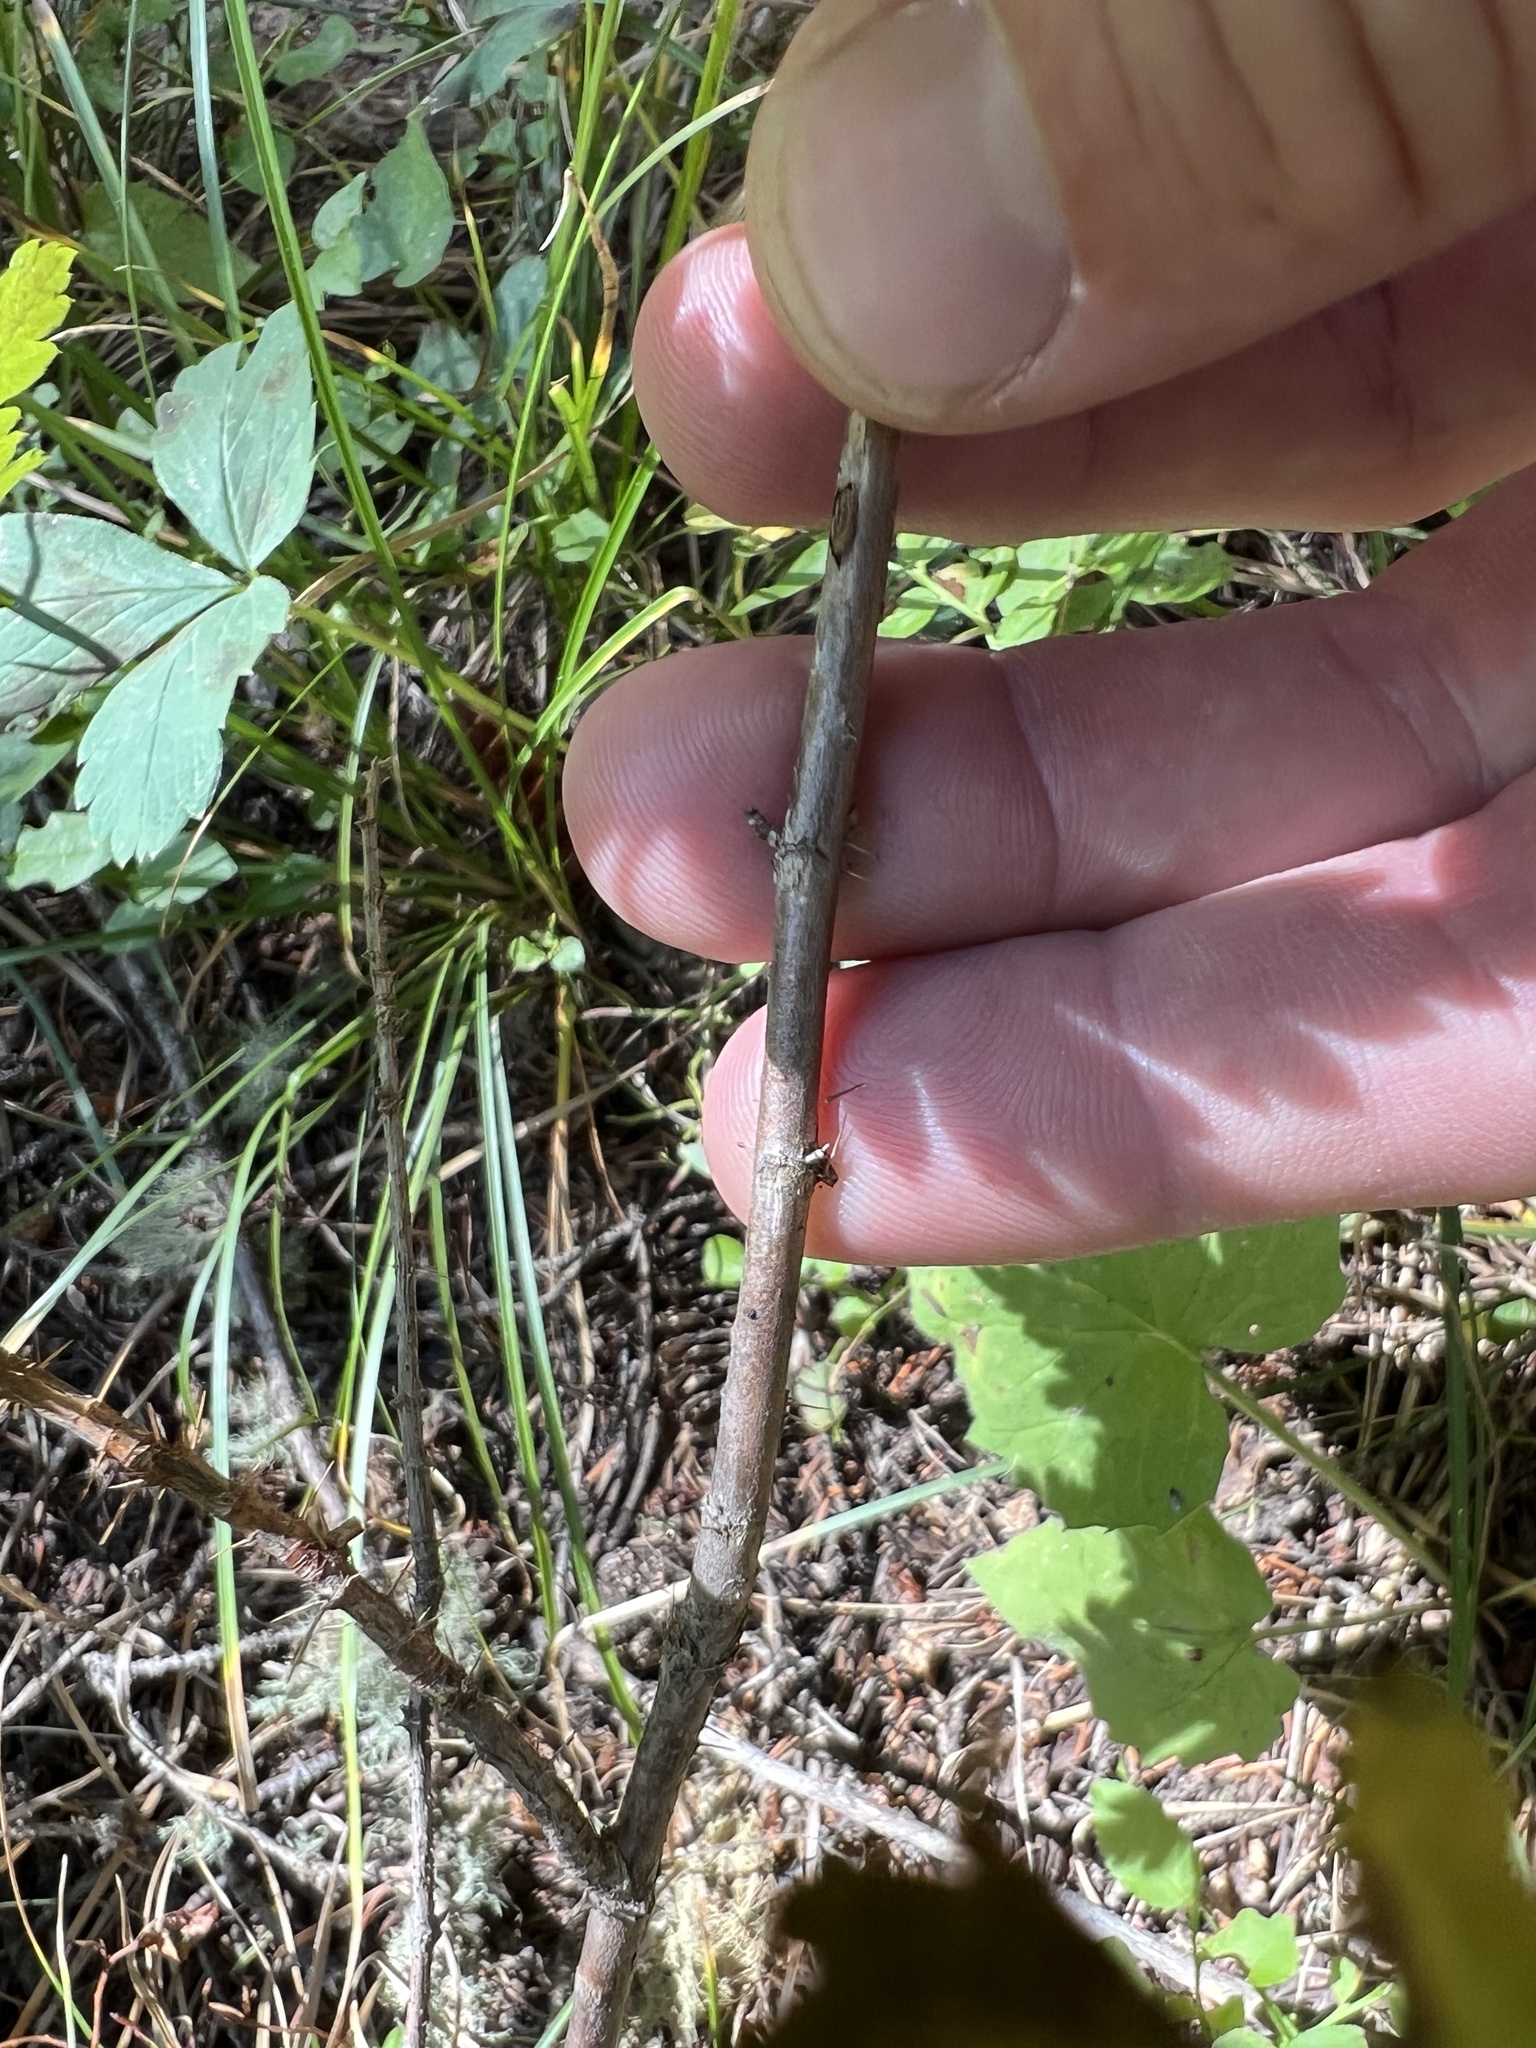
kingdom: Plantae
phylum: Tracheophyta
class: Magnoliopsida
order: Saxifragales
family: Grossulariaceae
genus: Ribes
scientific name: Ribes lacustre
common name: Black gooseberry
